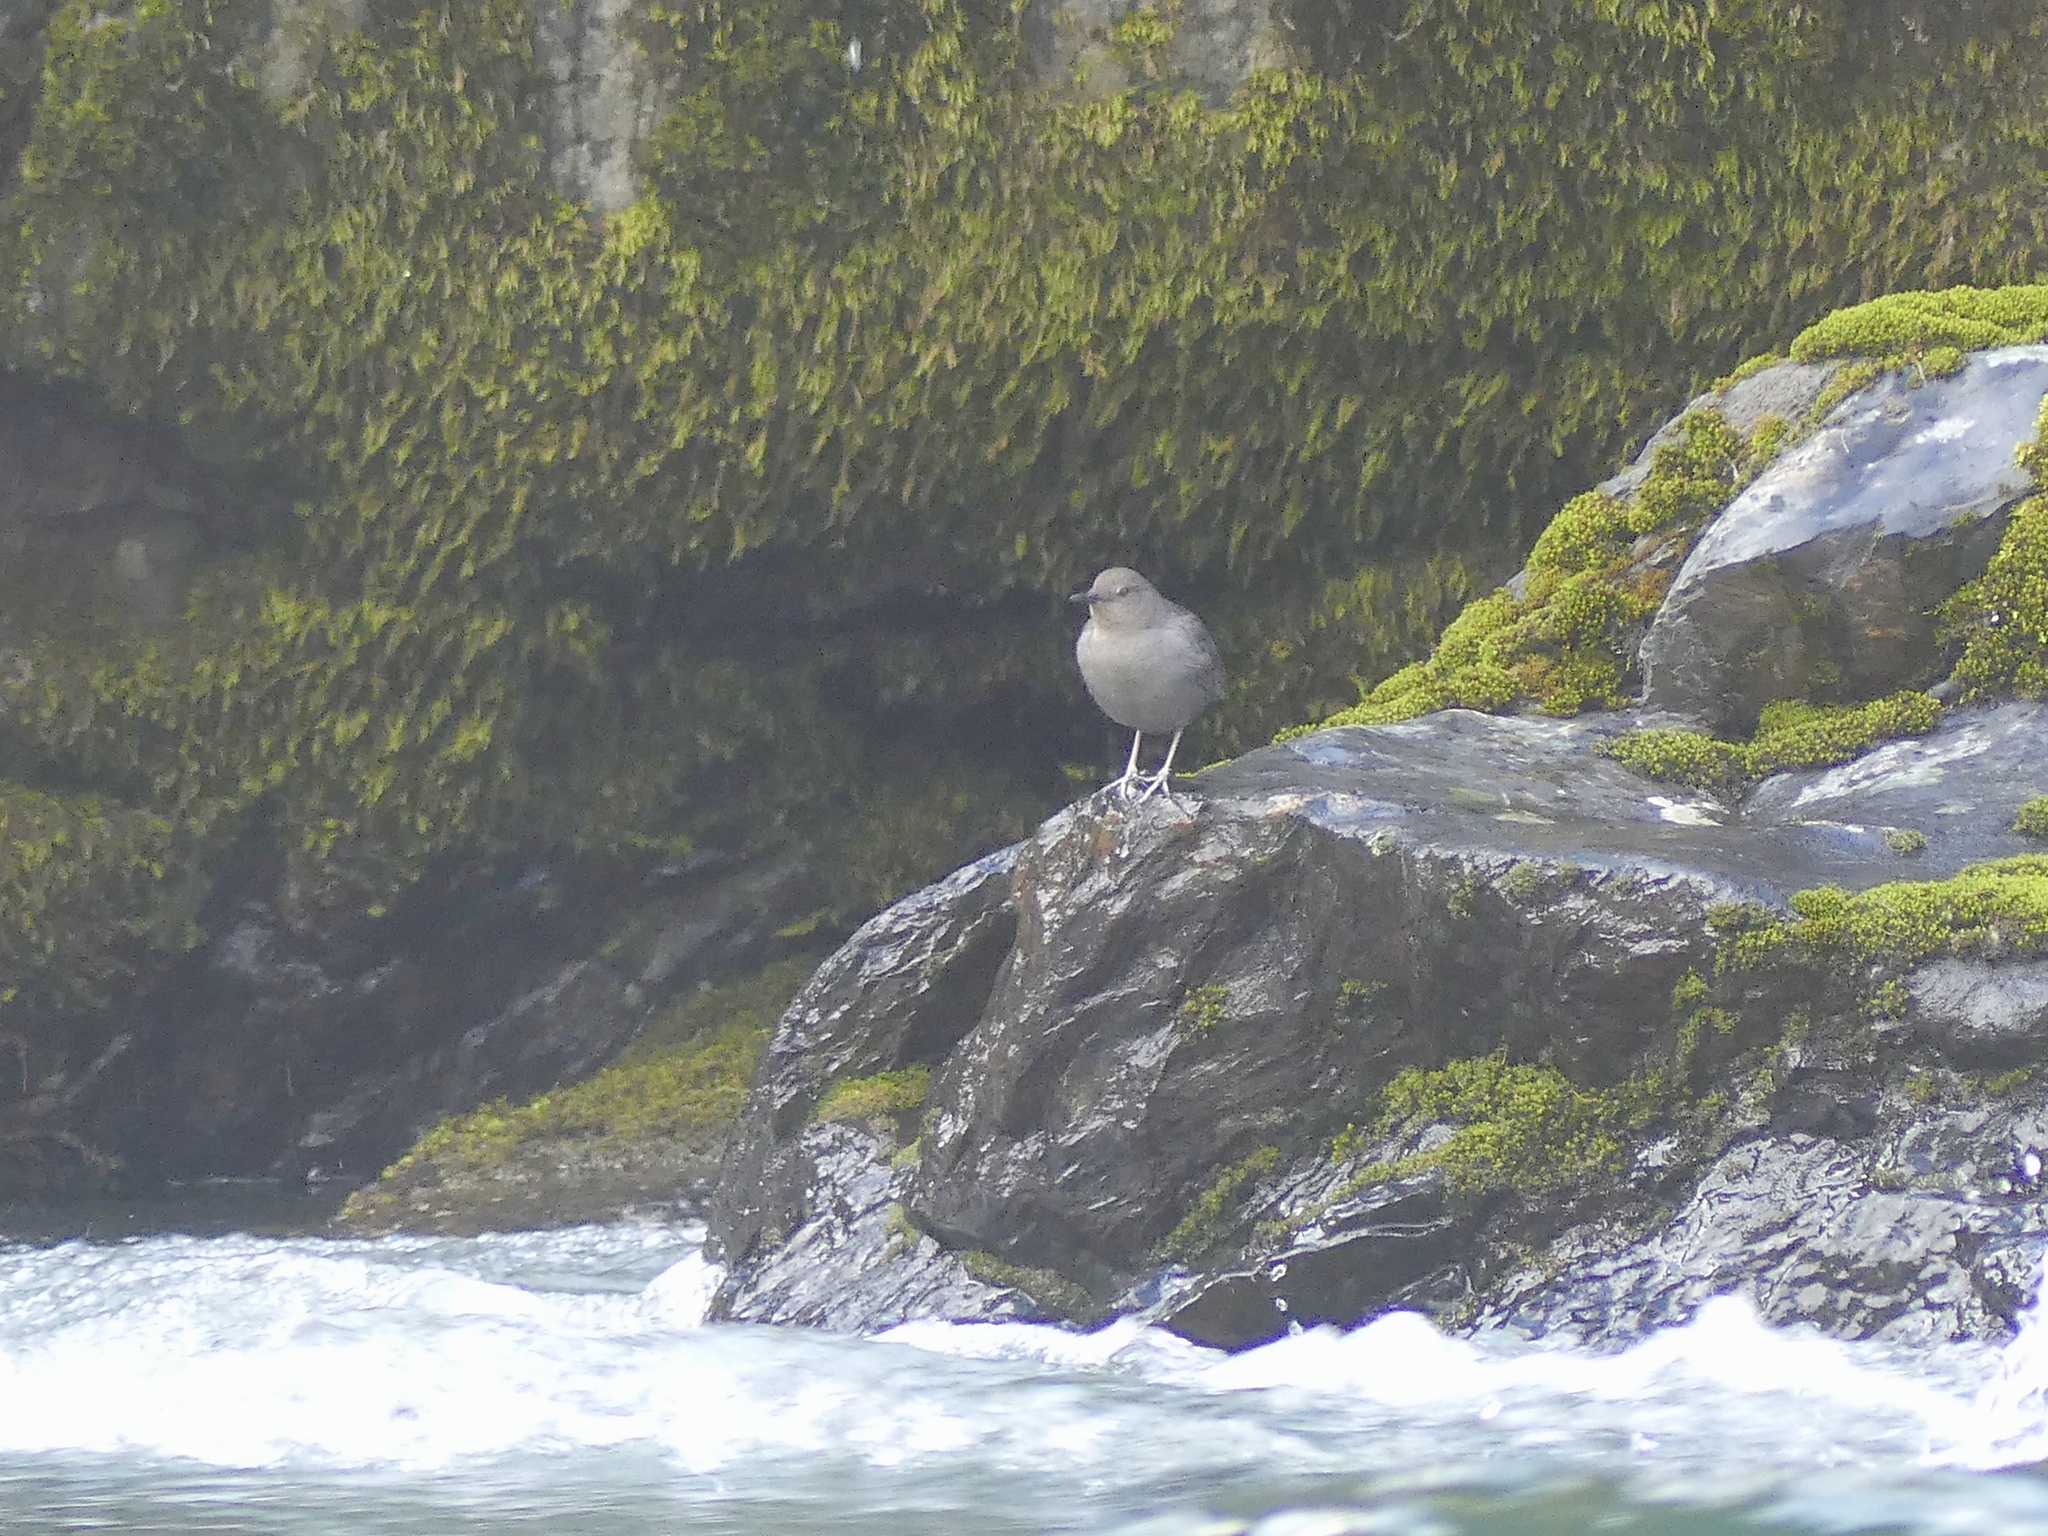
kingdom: Animalia
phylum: Chordata
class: Aves
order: Passeriformes
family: Cinclidae
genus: Cinclus
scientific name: Cinclus mexicanus
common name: American dipper
